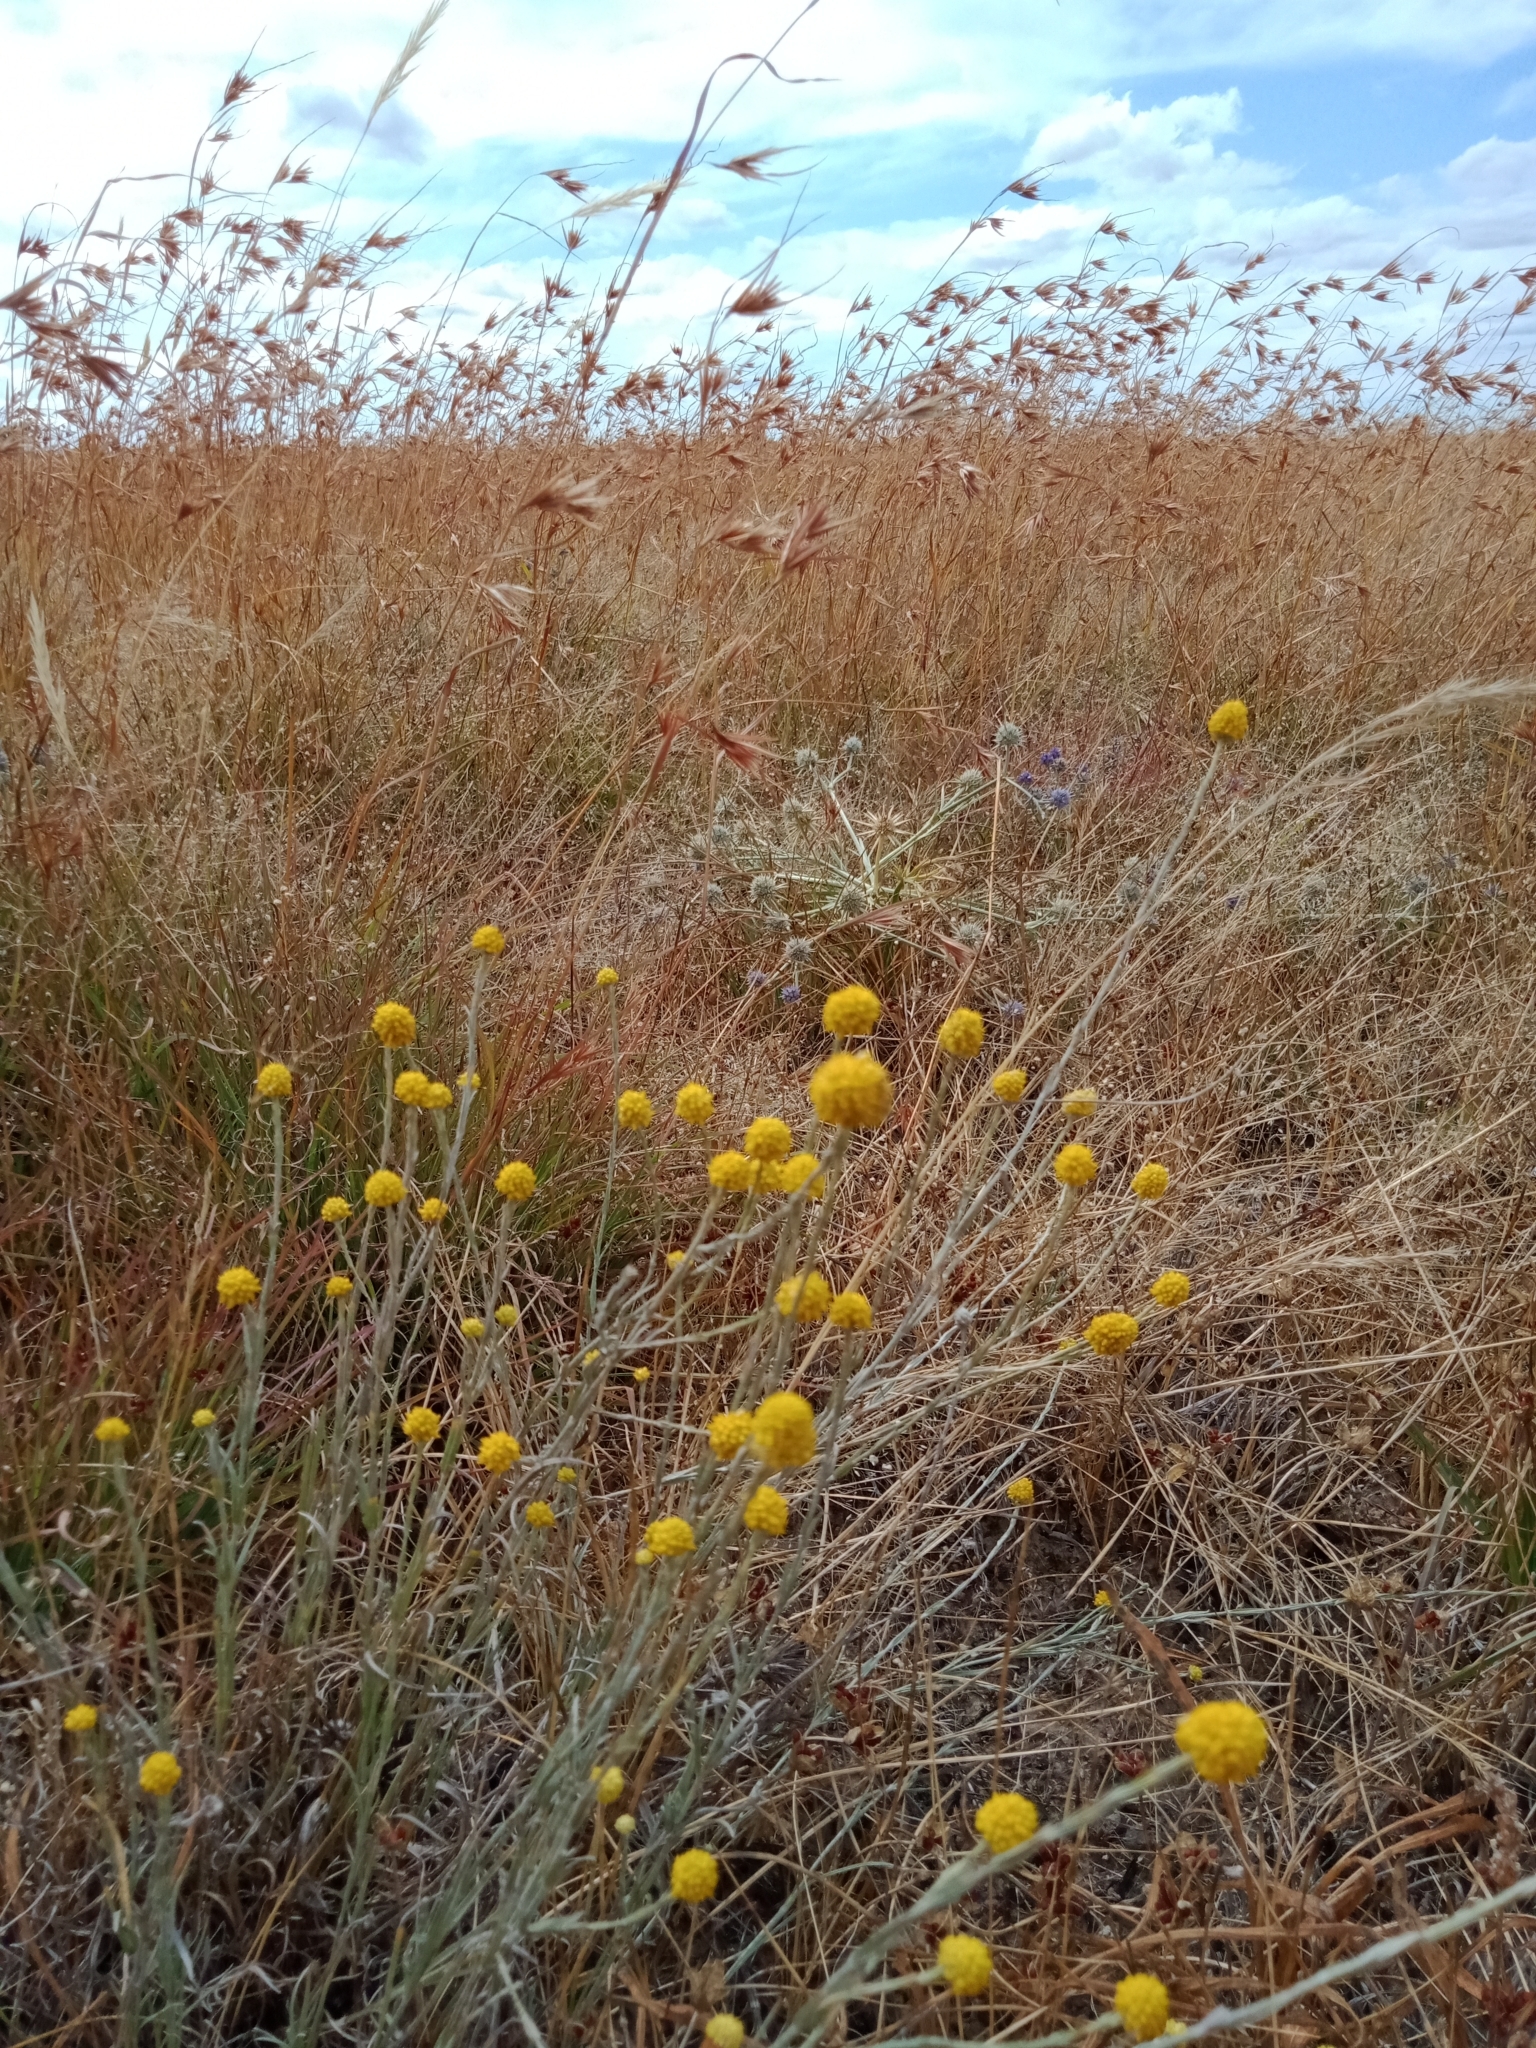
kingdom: Plantae
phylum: Tracheophyta
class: Magnoliopsida
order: Asterales
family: Asteraceae
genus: Calocephalus
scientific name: Calocephalus citreus
